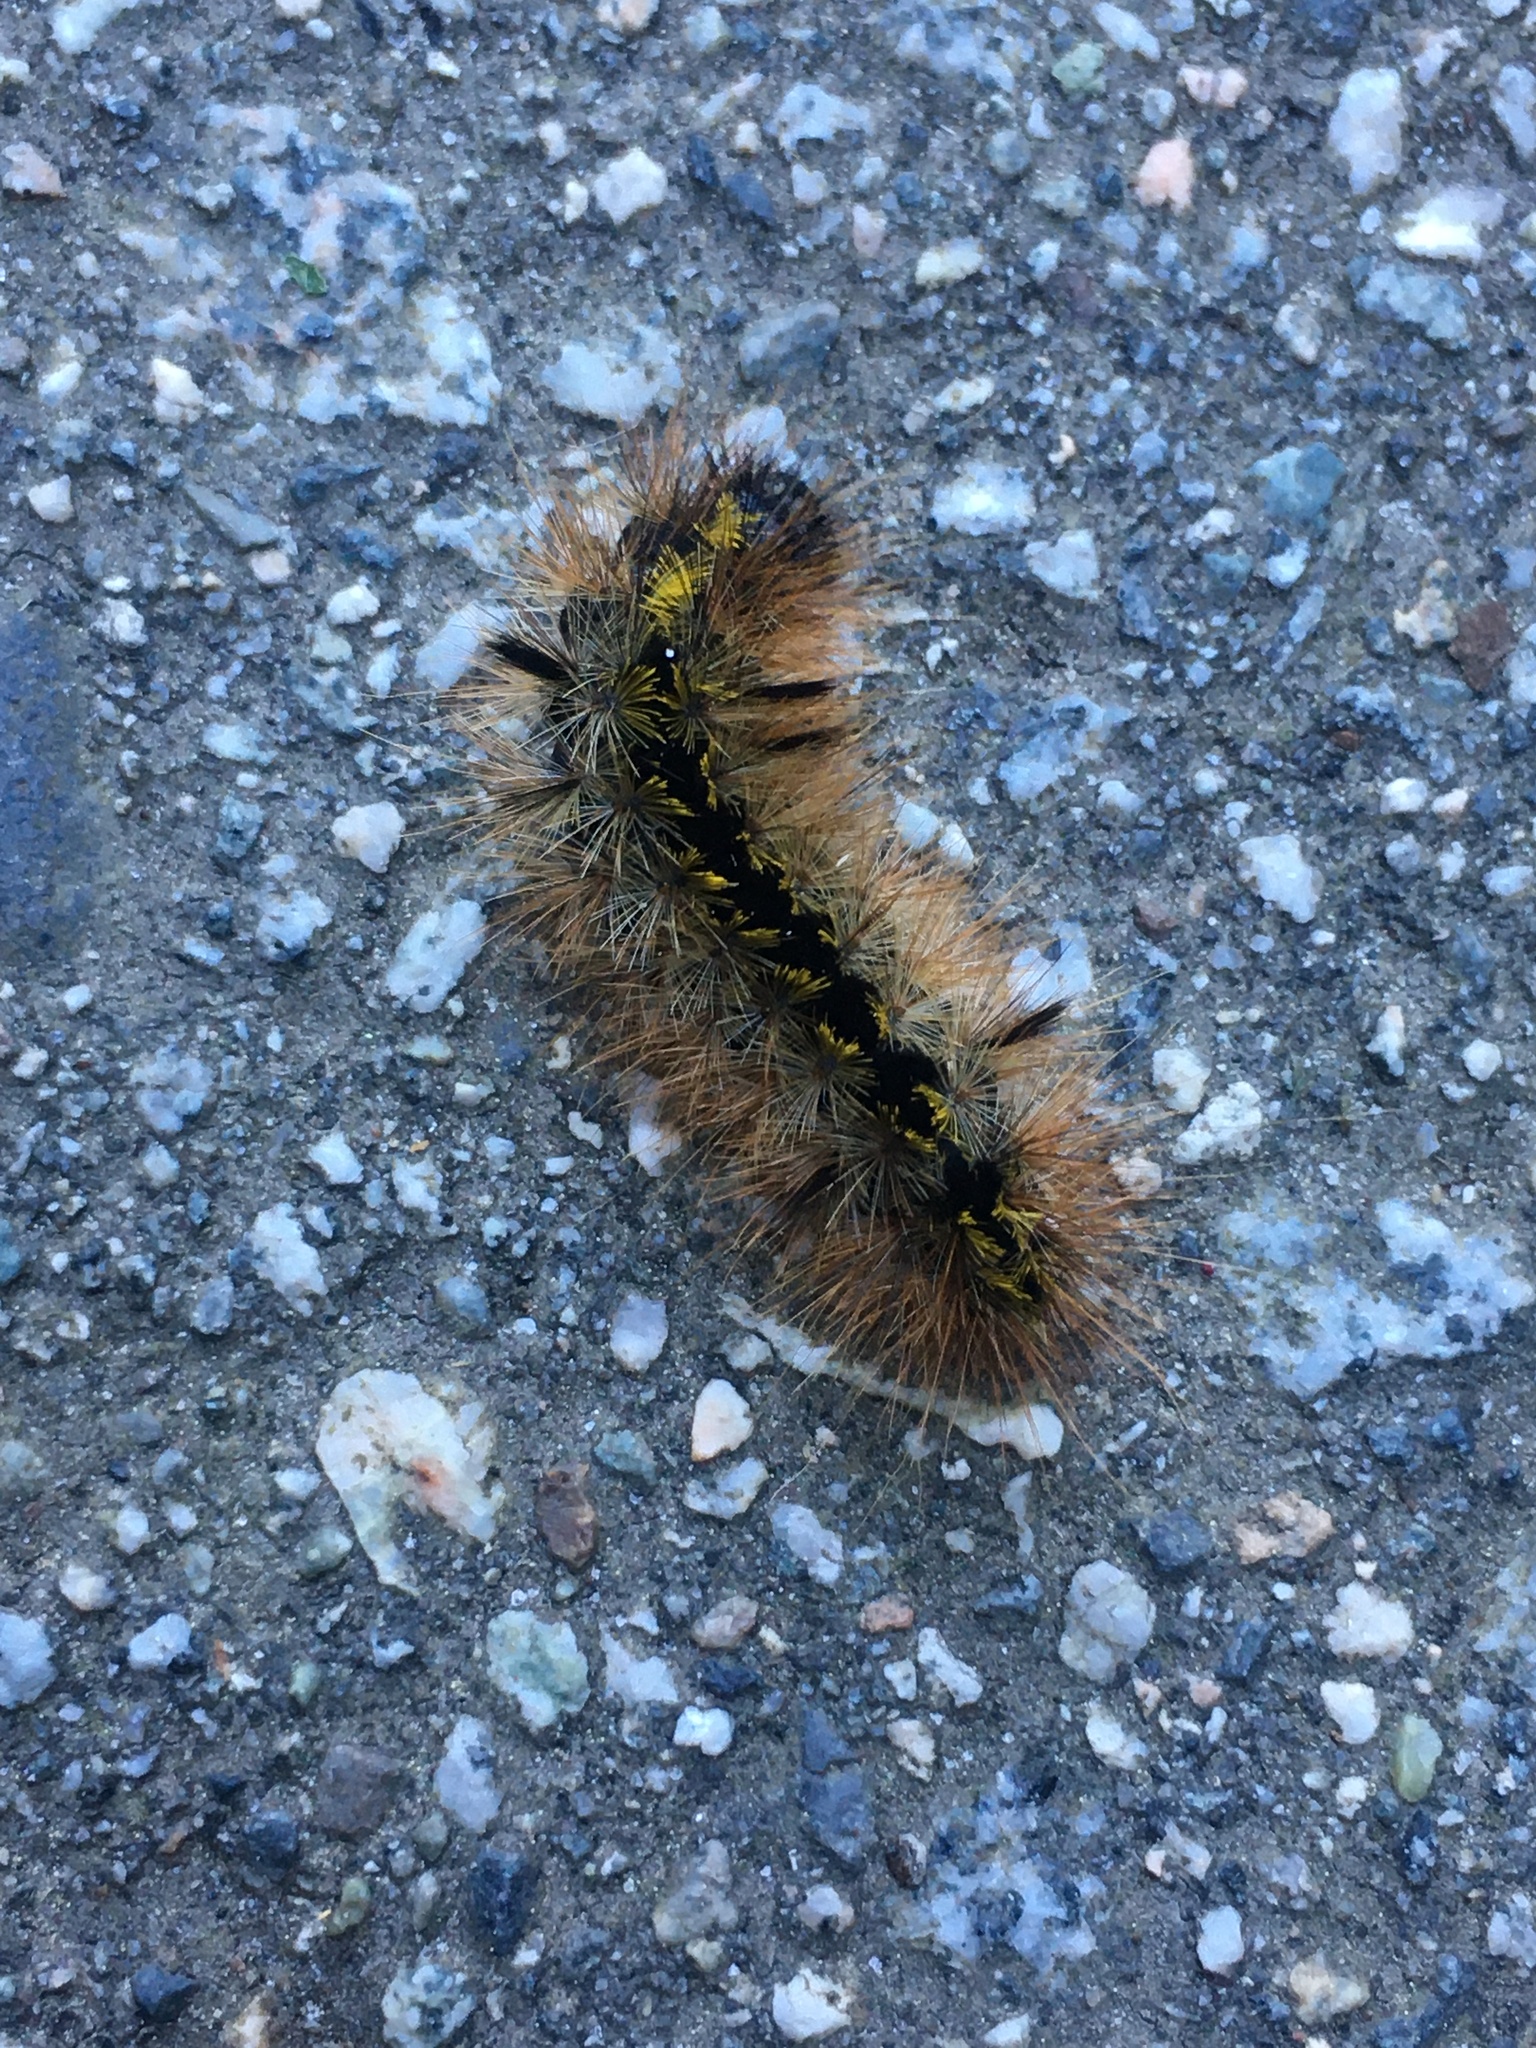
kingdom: Animalia
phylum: Arthropoda
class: Insecta
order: Lepidoptera
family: Erebidae
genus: Lophocampa
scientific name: Lophocampa argentata
